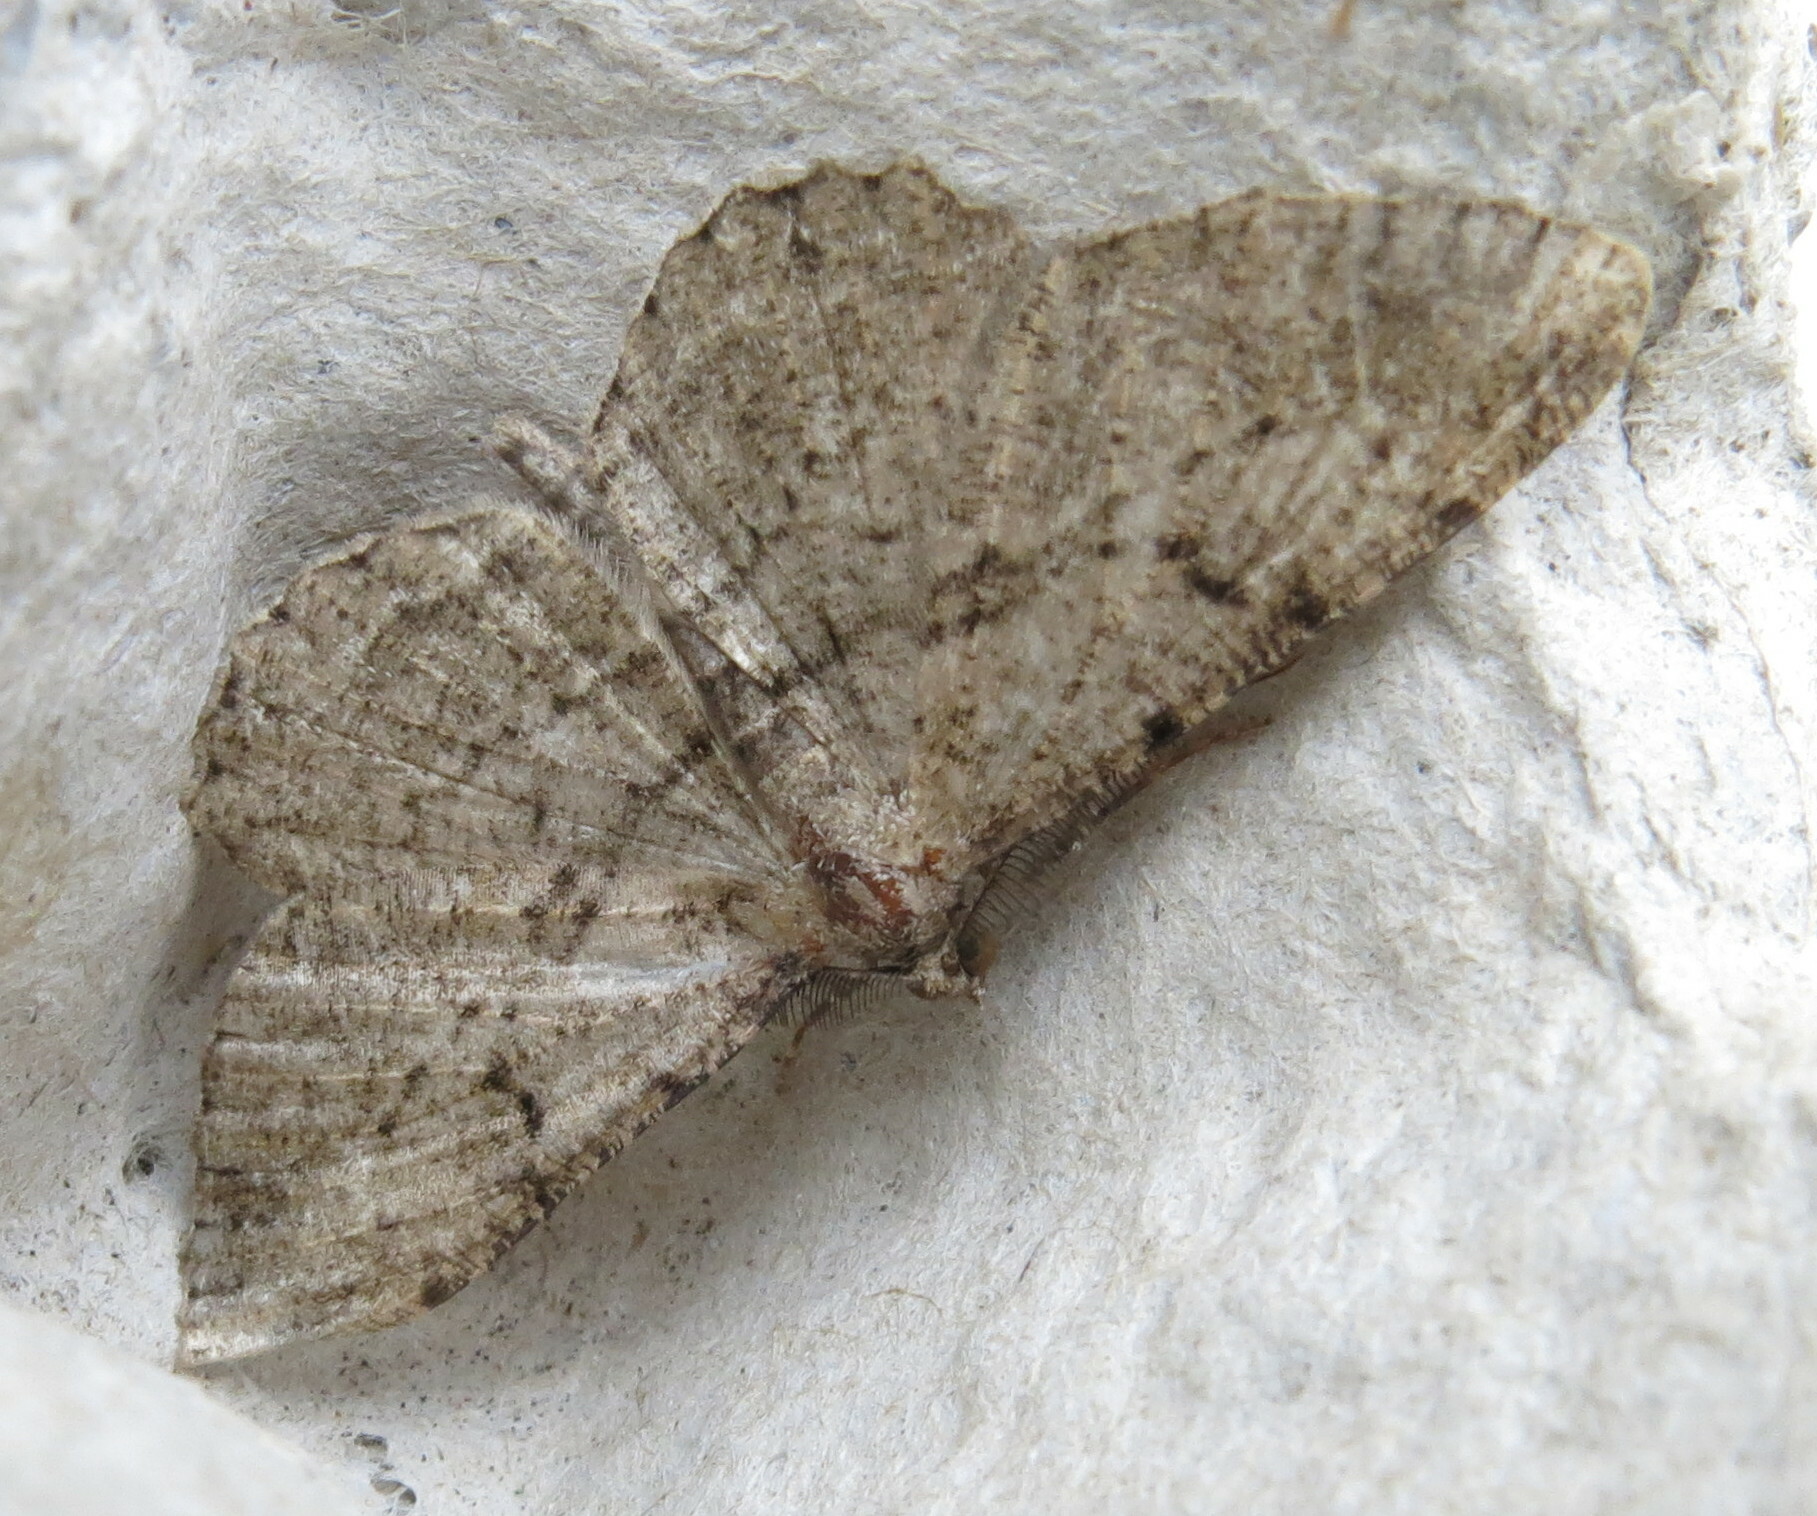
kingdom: Animalia
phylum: Arthropoda
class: Insecta
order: Lepidoptera
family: Geometridae
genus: Peribatodes
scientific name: Peribatodes rhomboidaria
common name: Willow beauty
